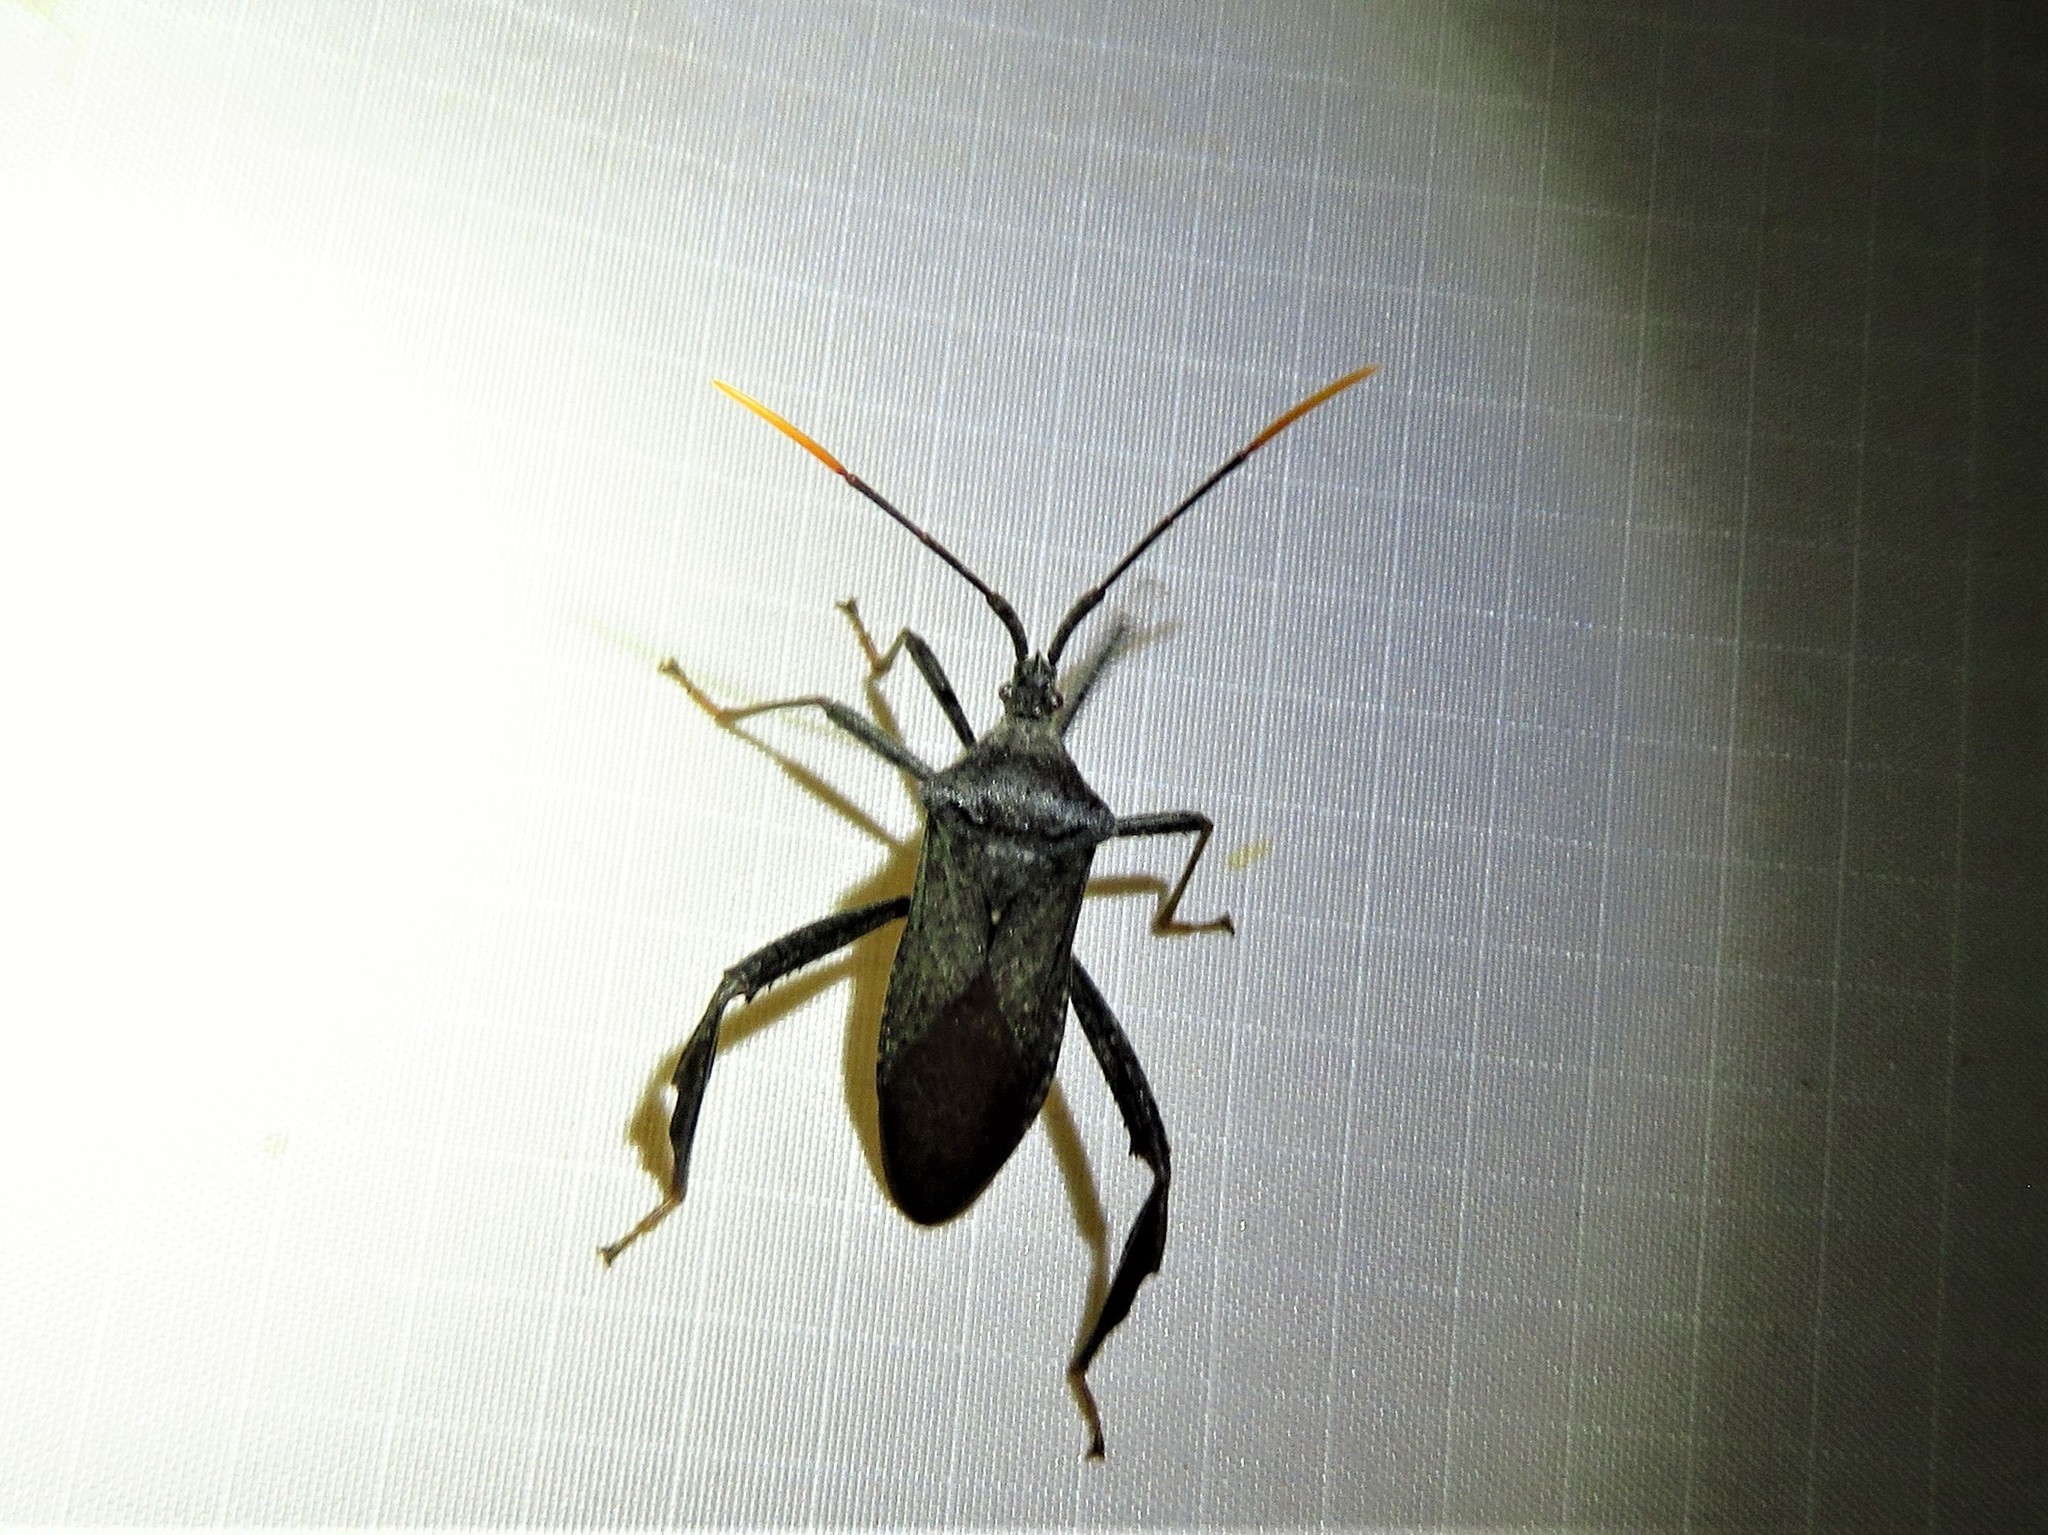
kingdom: Animalia
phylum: Arthropoda
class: Insecta
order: Hemiptera
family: Coreidae
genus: Acanthocephala
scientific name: Acanthocephala terminalis
